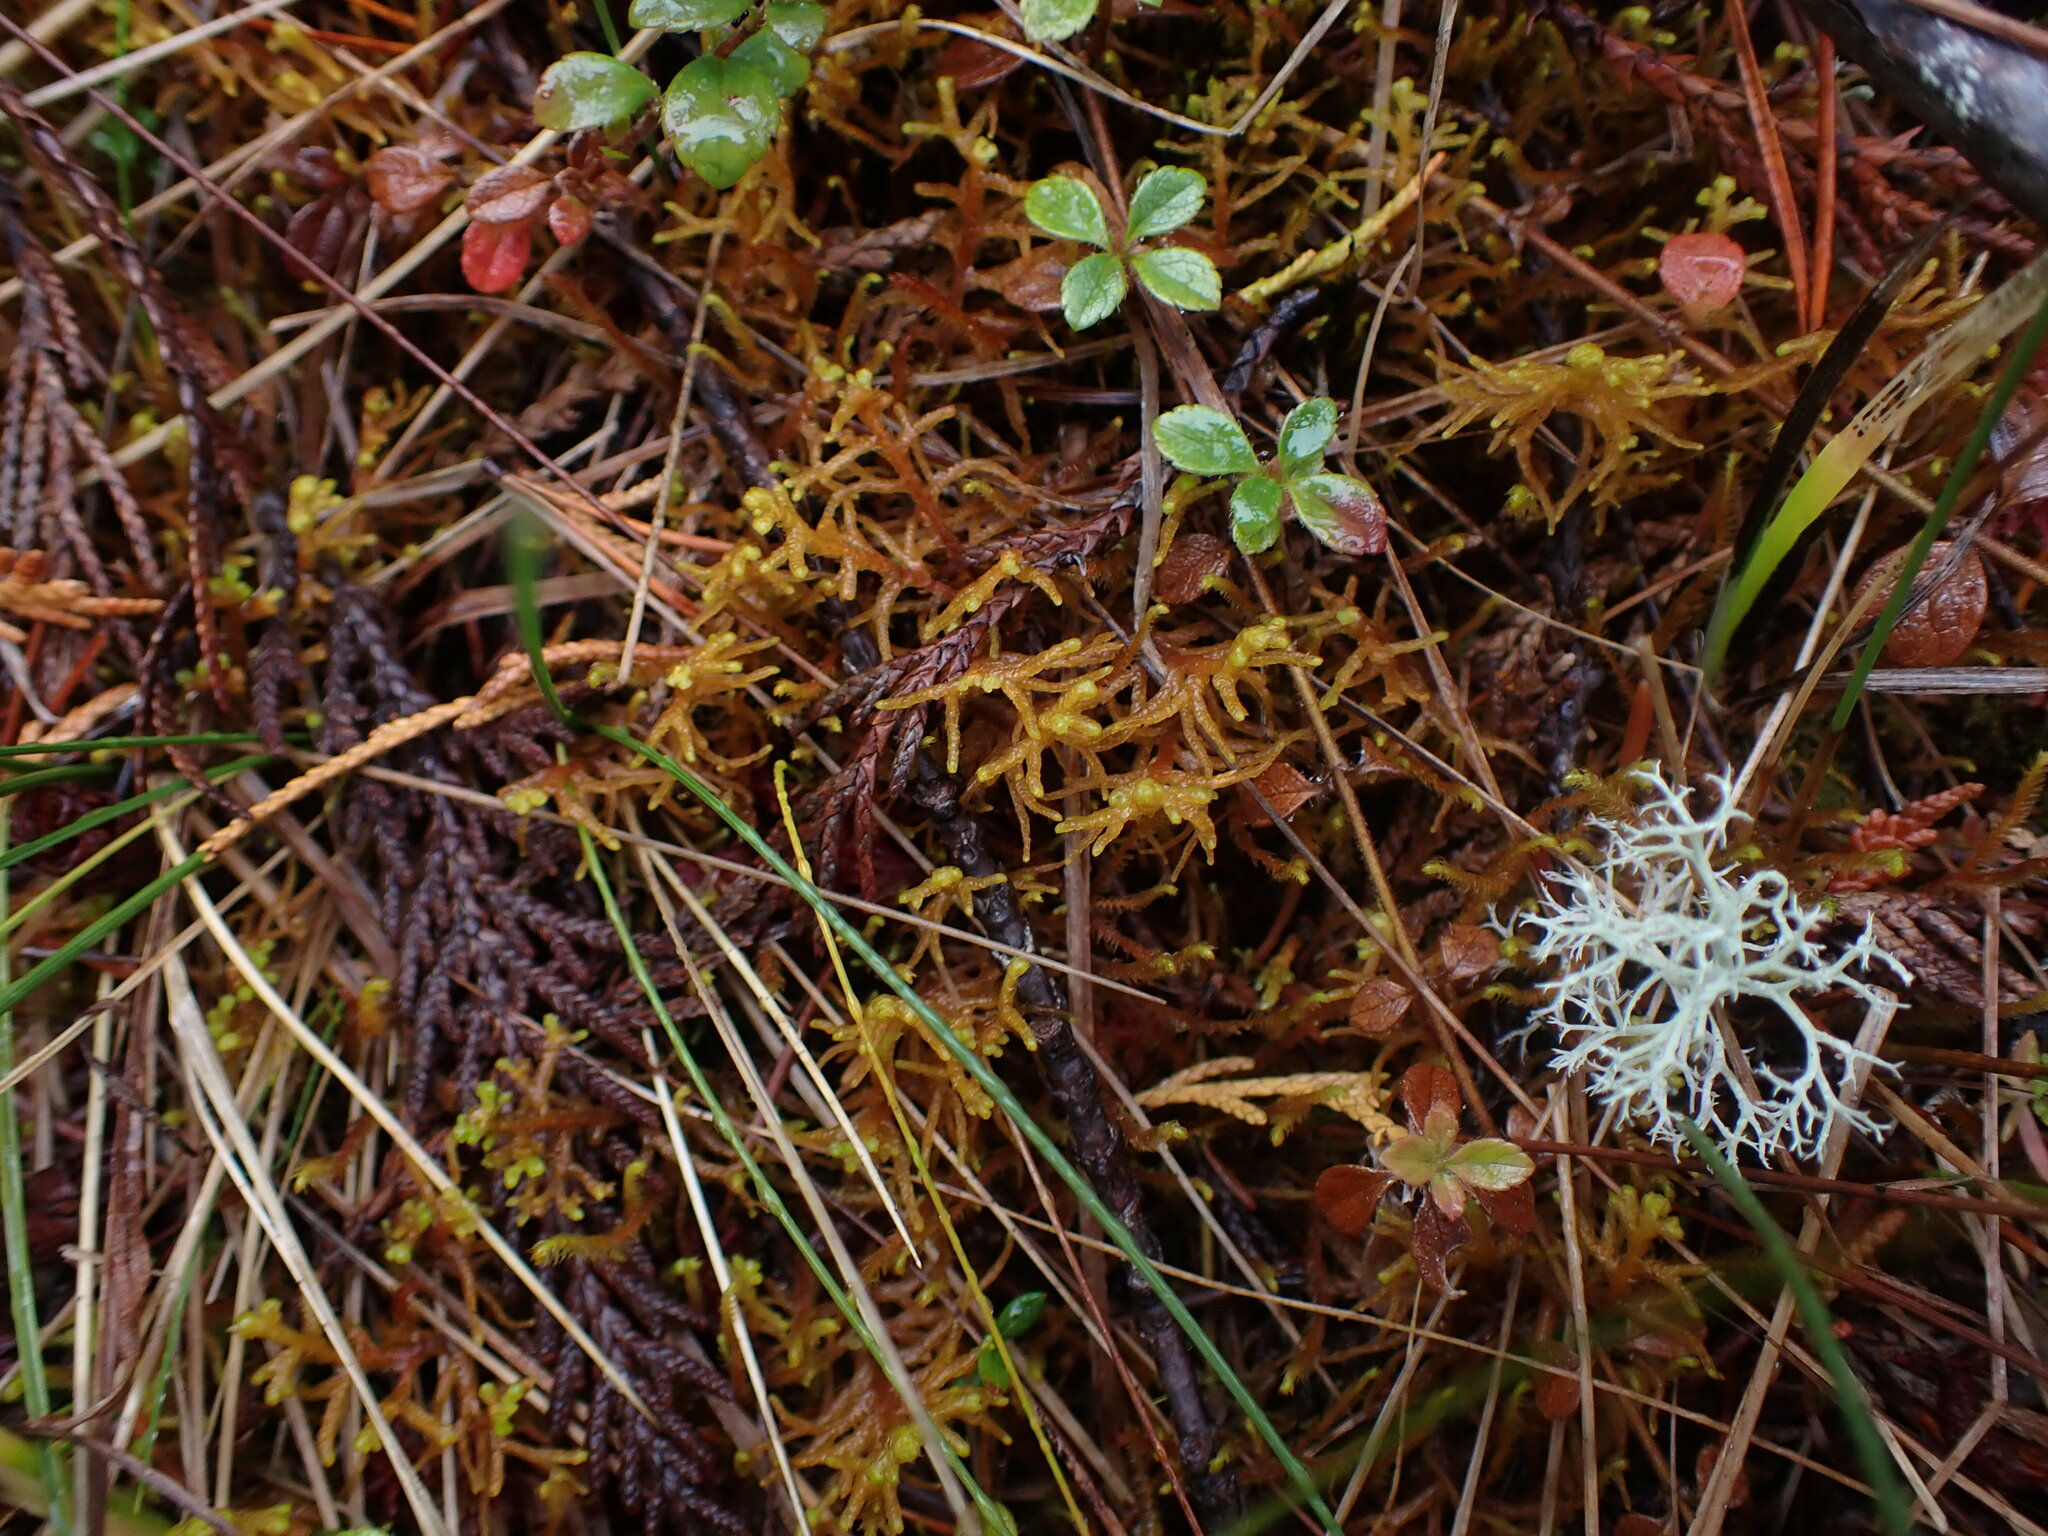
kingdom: Plantae
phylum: Marchantiophyta
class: Jungermanniopsida
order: Jungermanniales
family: Mastigophoraceae
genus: Mastigophora
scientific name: Mastigophora woodsii
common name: Wood's whipwort
